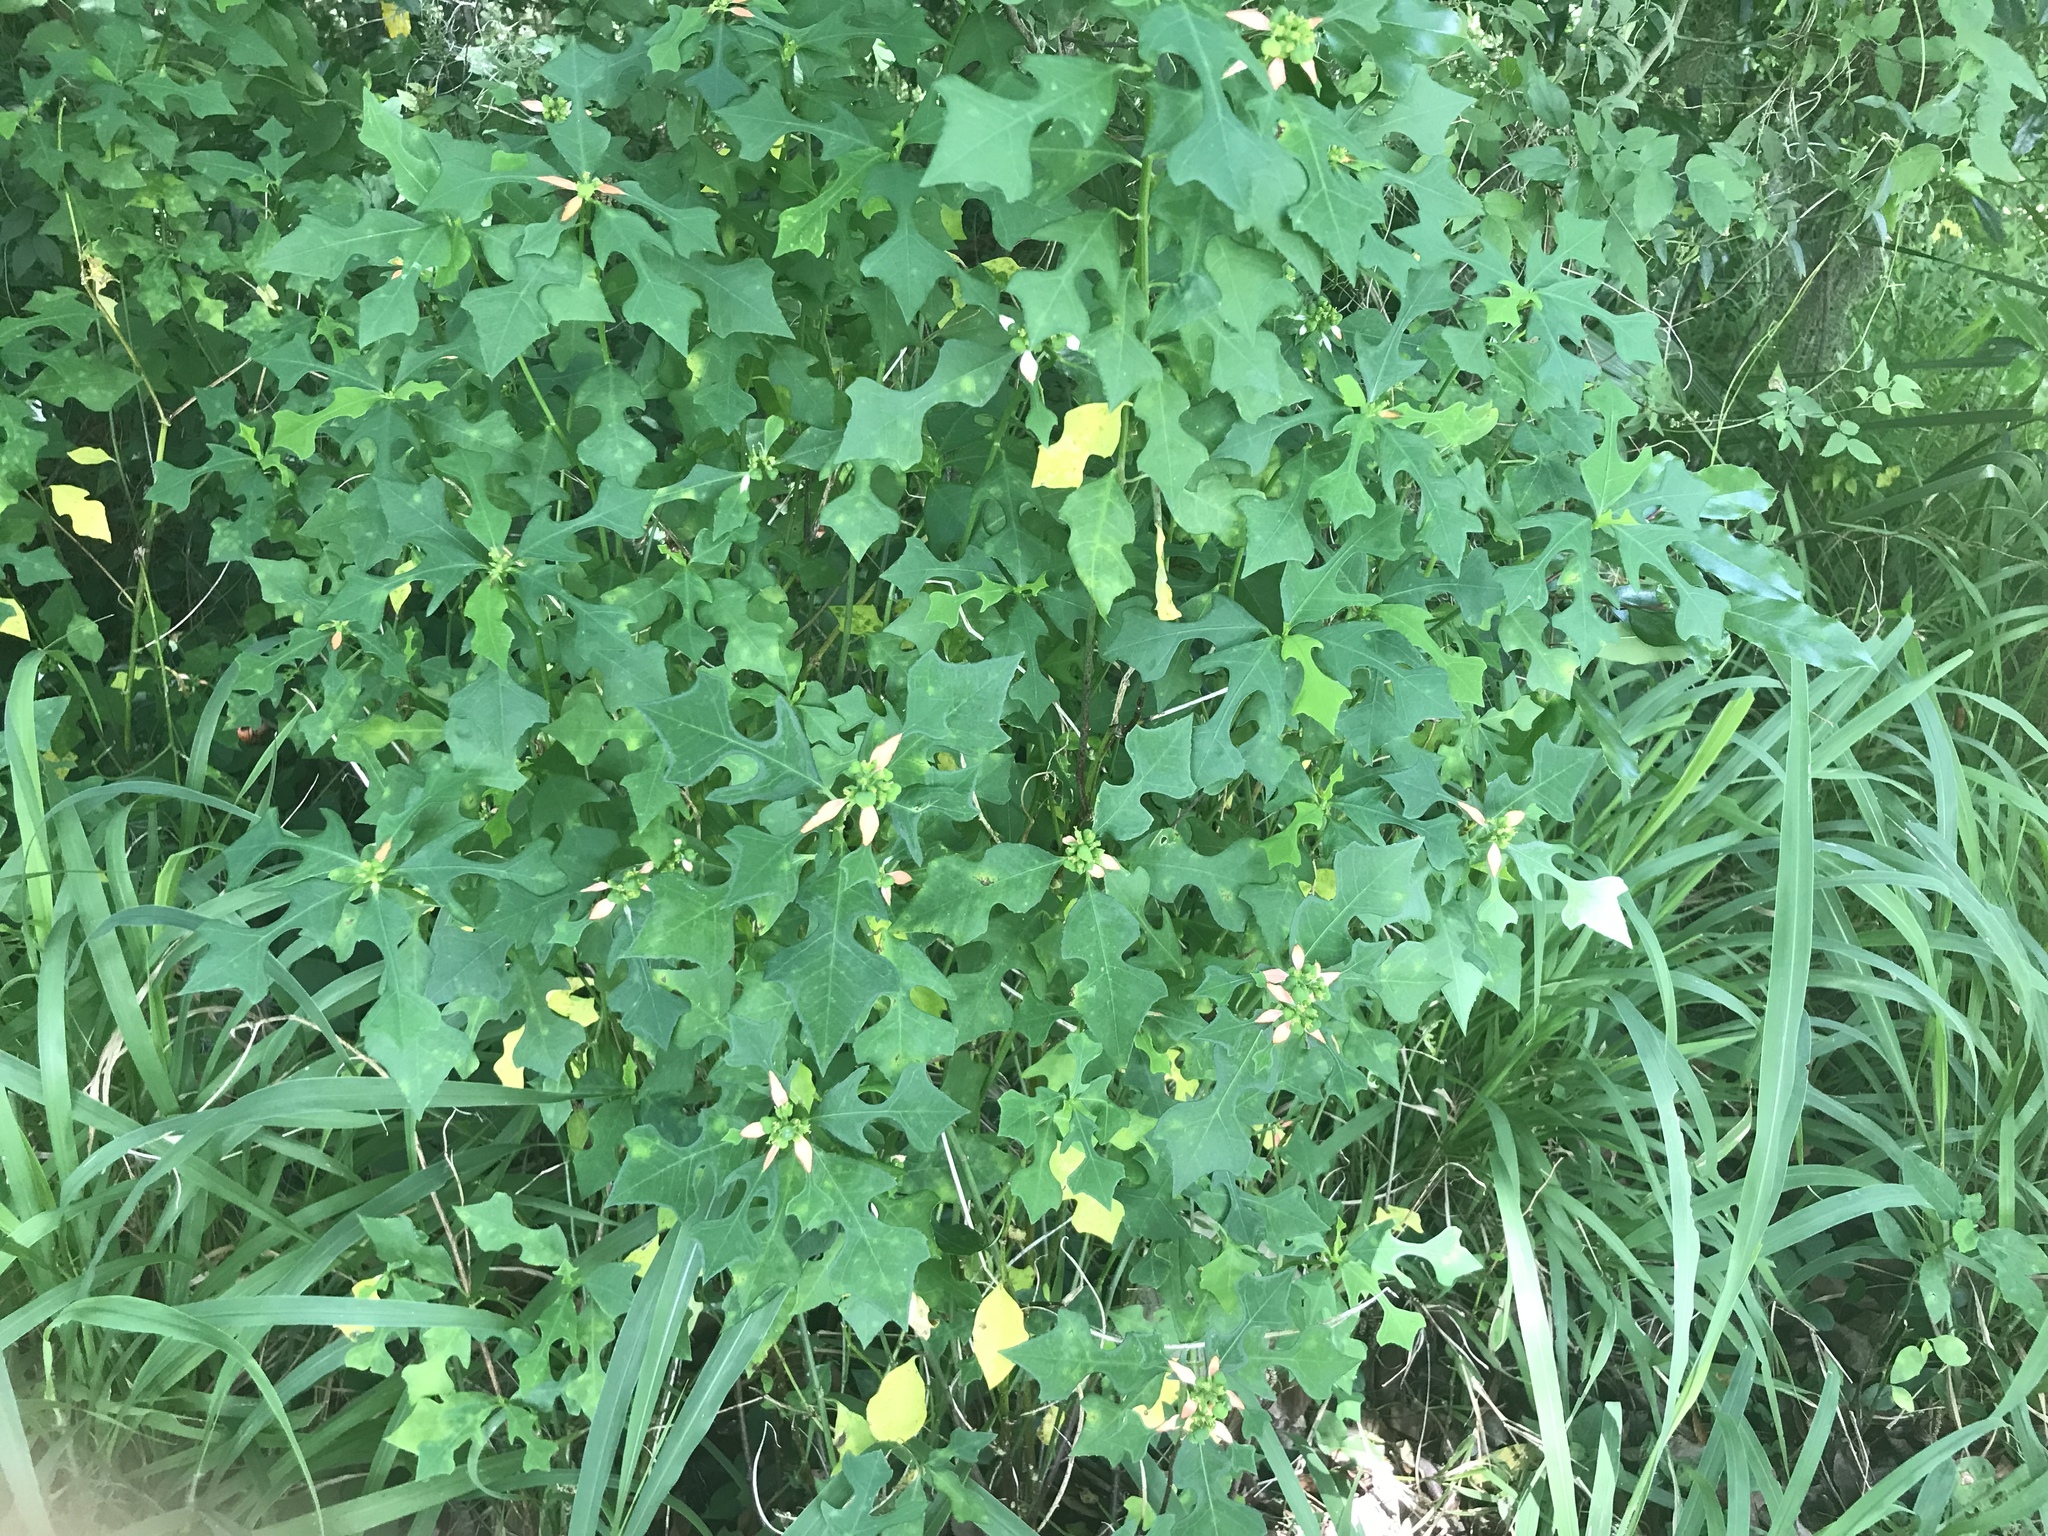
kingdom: Plantae
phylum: Tracheophyta
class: Magnoliopsida
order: Malpighiales
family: Euphorbiaceae
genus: Euphorbia
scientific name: Euphorbia heterophylla
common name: Mexican fireplant
